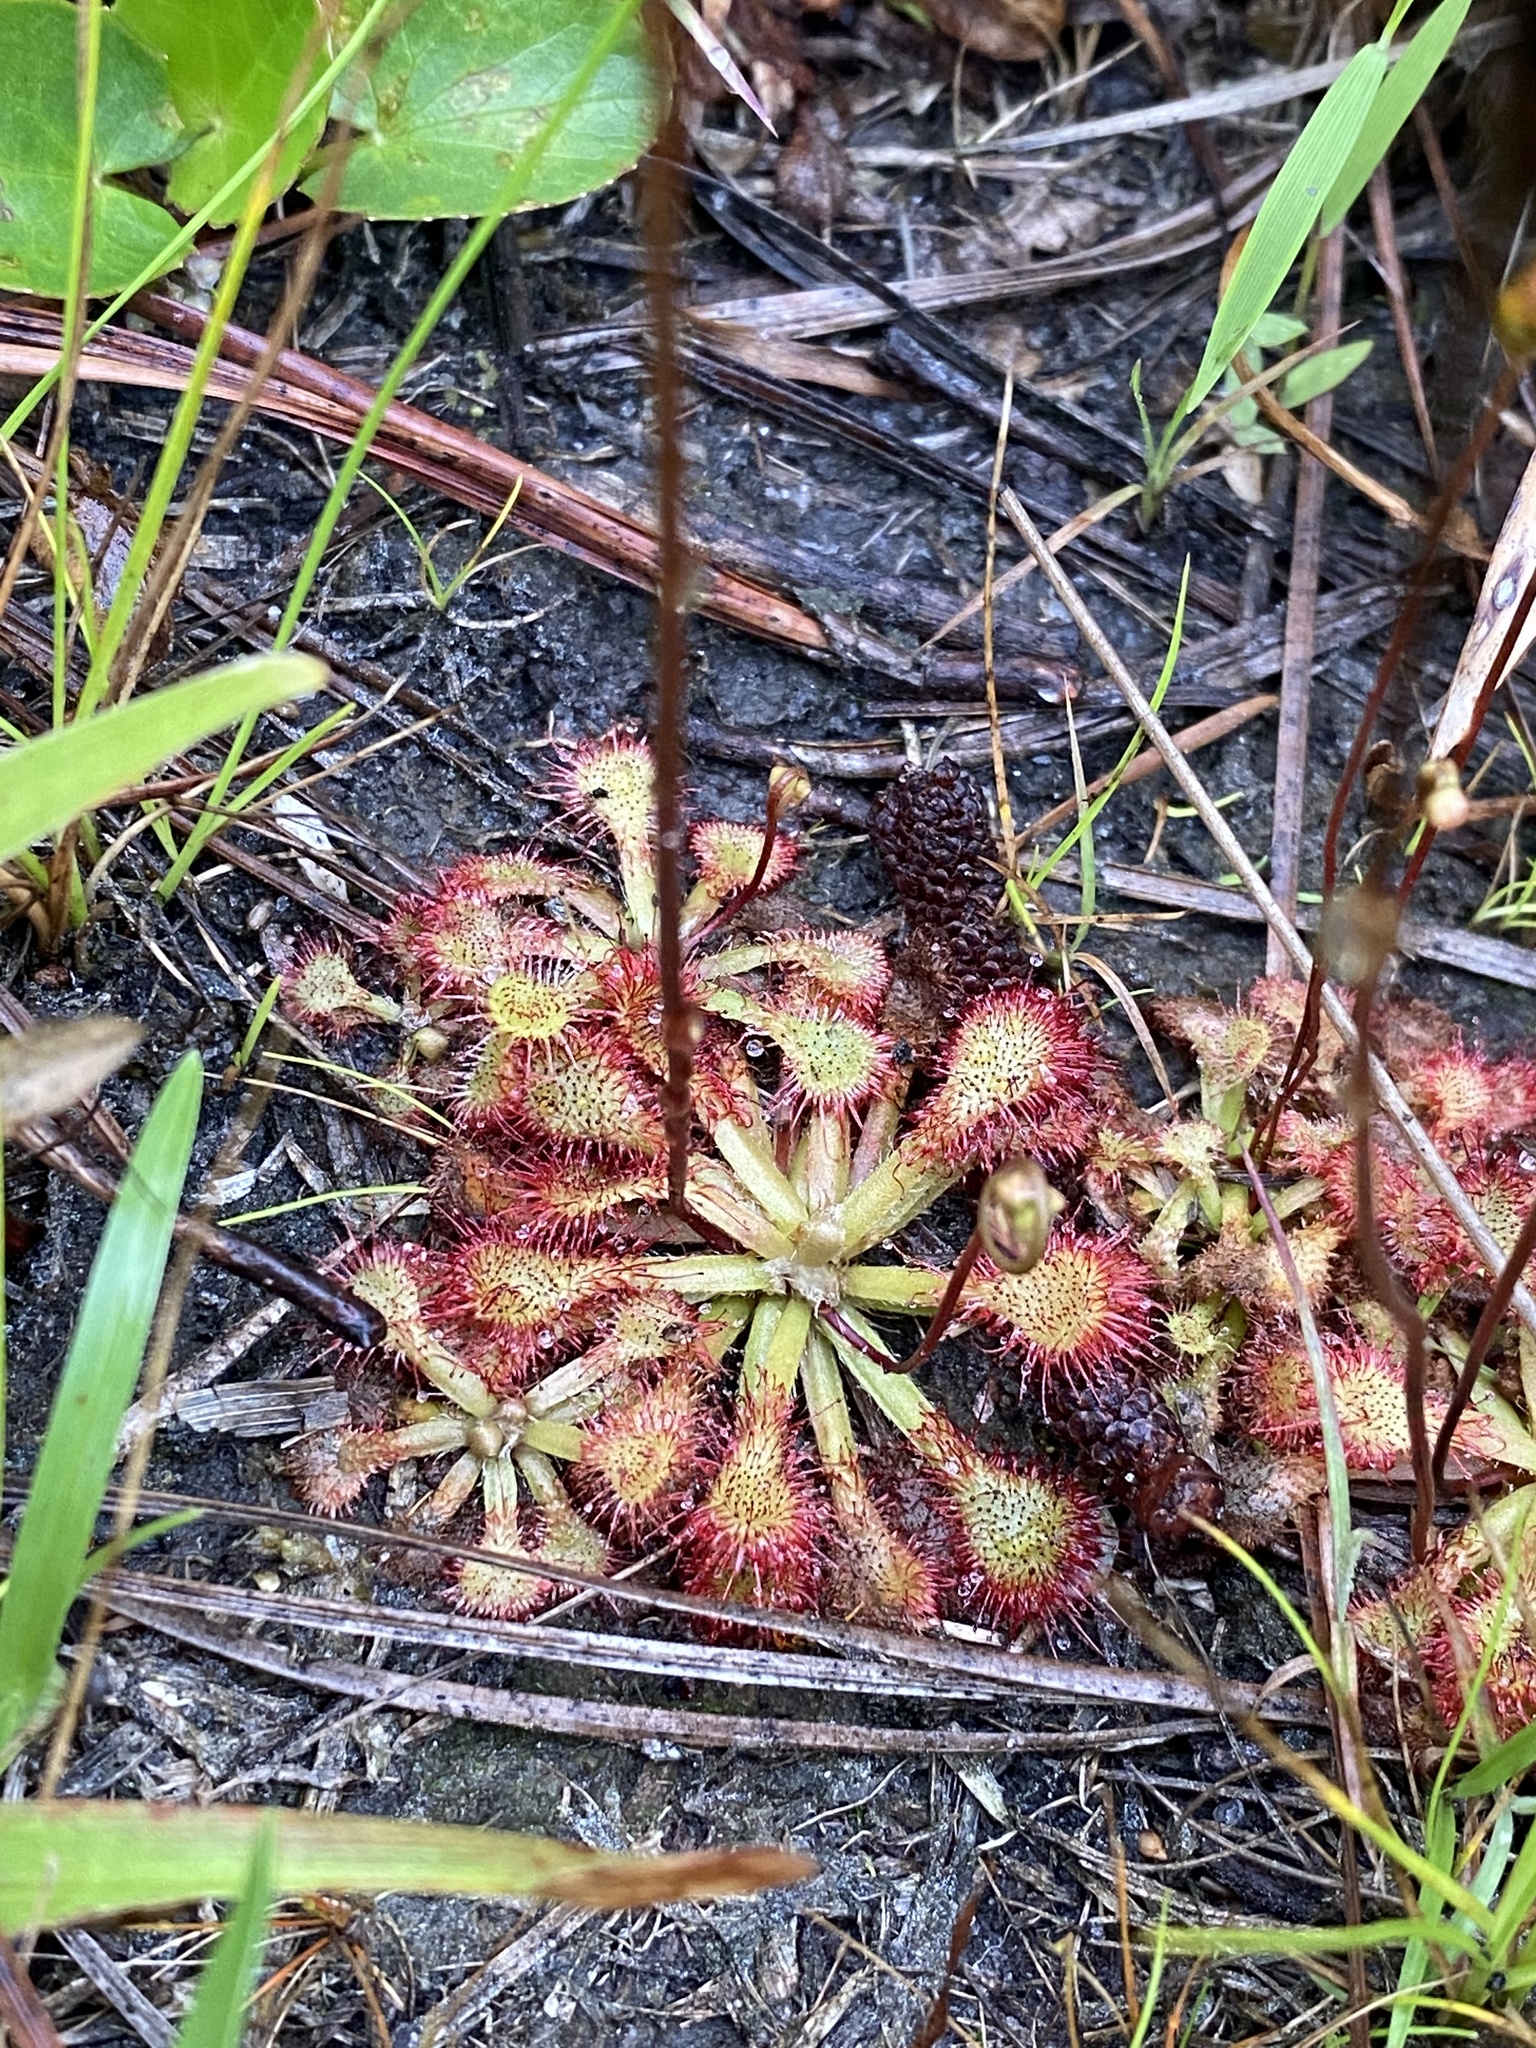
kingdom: Plantae
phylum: Tracheophyta
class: Magnoliopsida
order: Caryophyllales
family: Droseraceae
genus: Drosera
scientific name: Drosera capillaris
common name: Pink sundew
